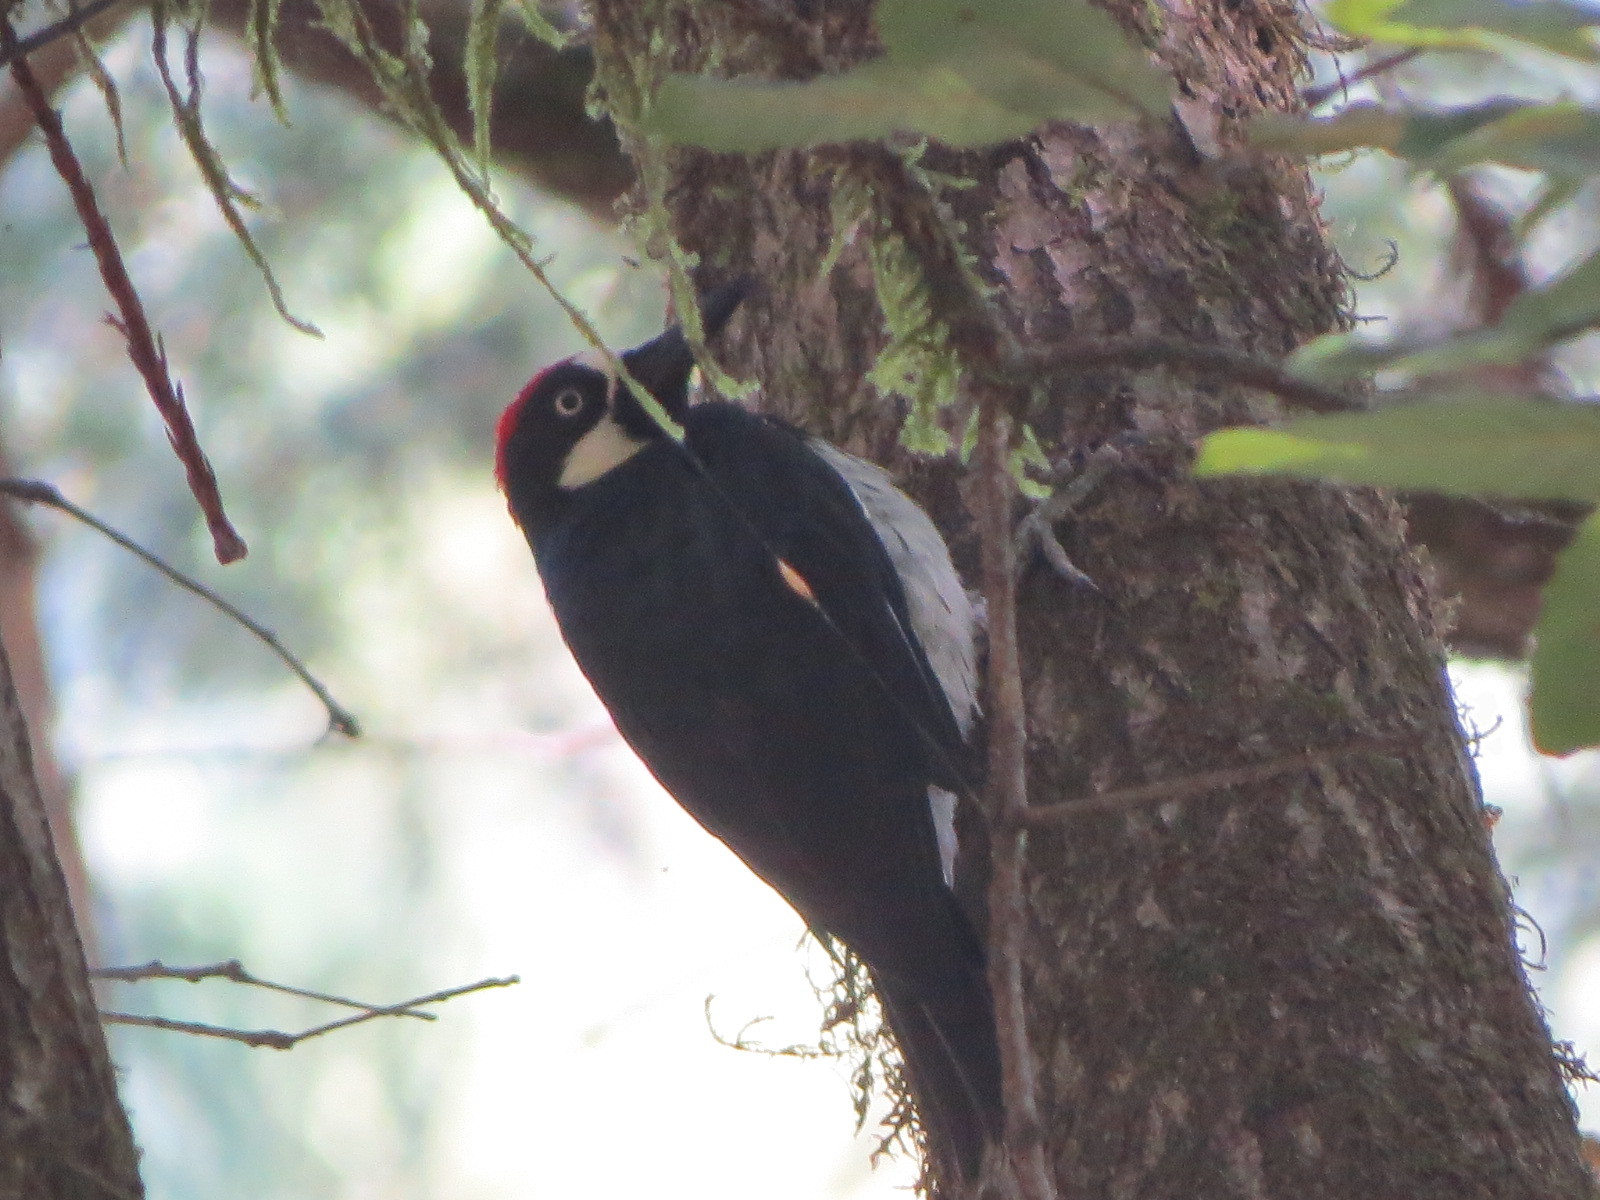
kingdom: Animalia
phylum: Chordata
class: Aves
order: Piciformes
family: Picidae
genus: Melanerpes
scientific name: Melanerpes formicivorus
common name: Acorn woodpecker
